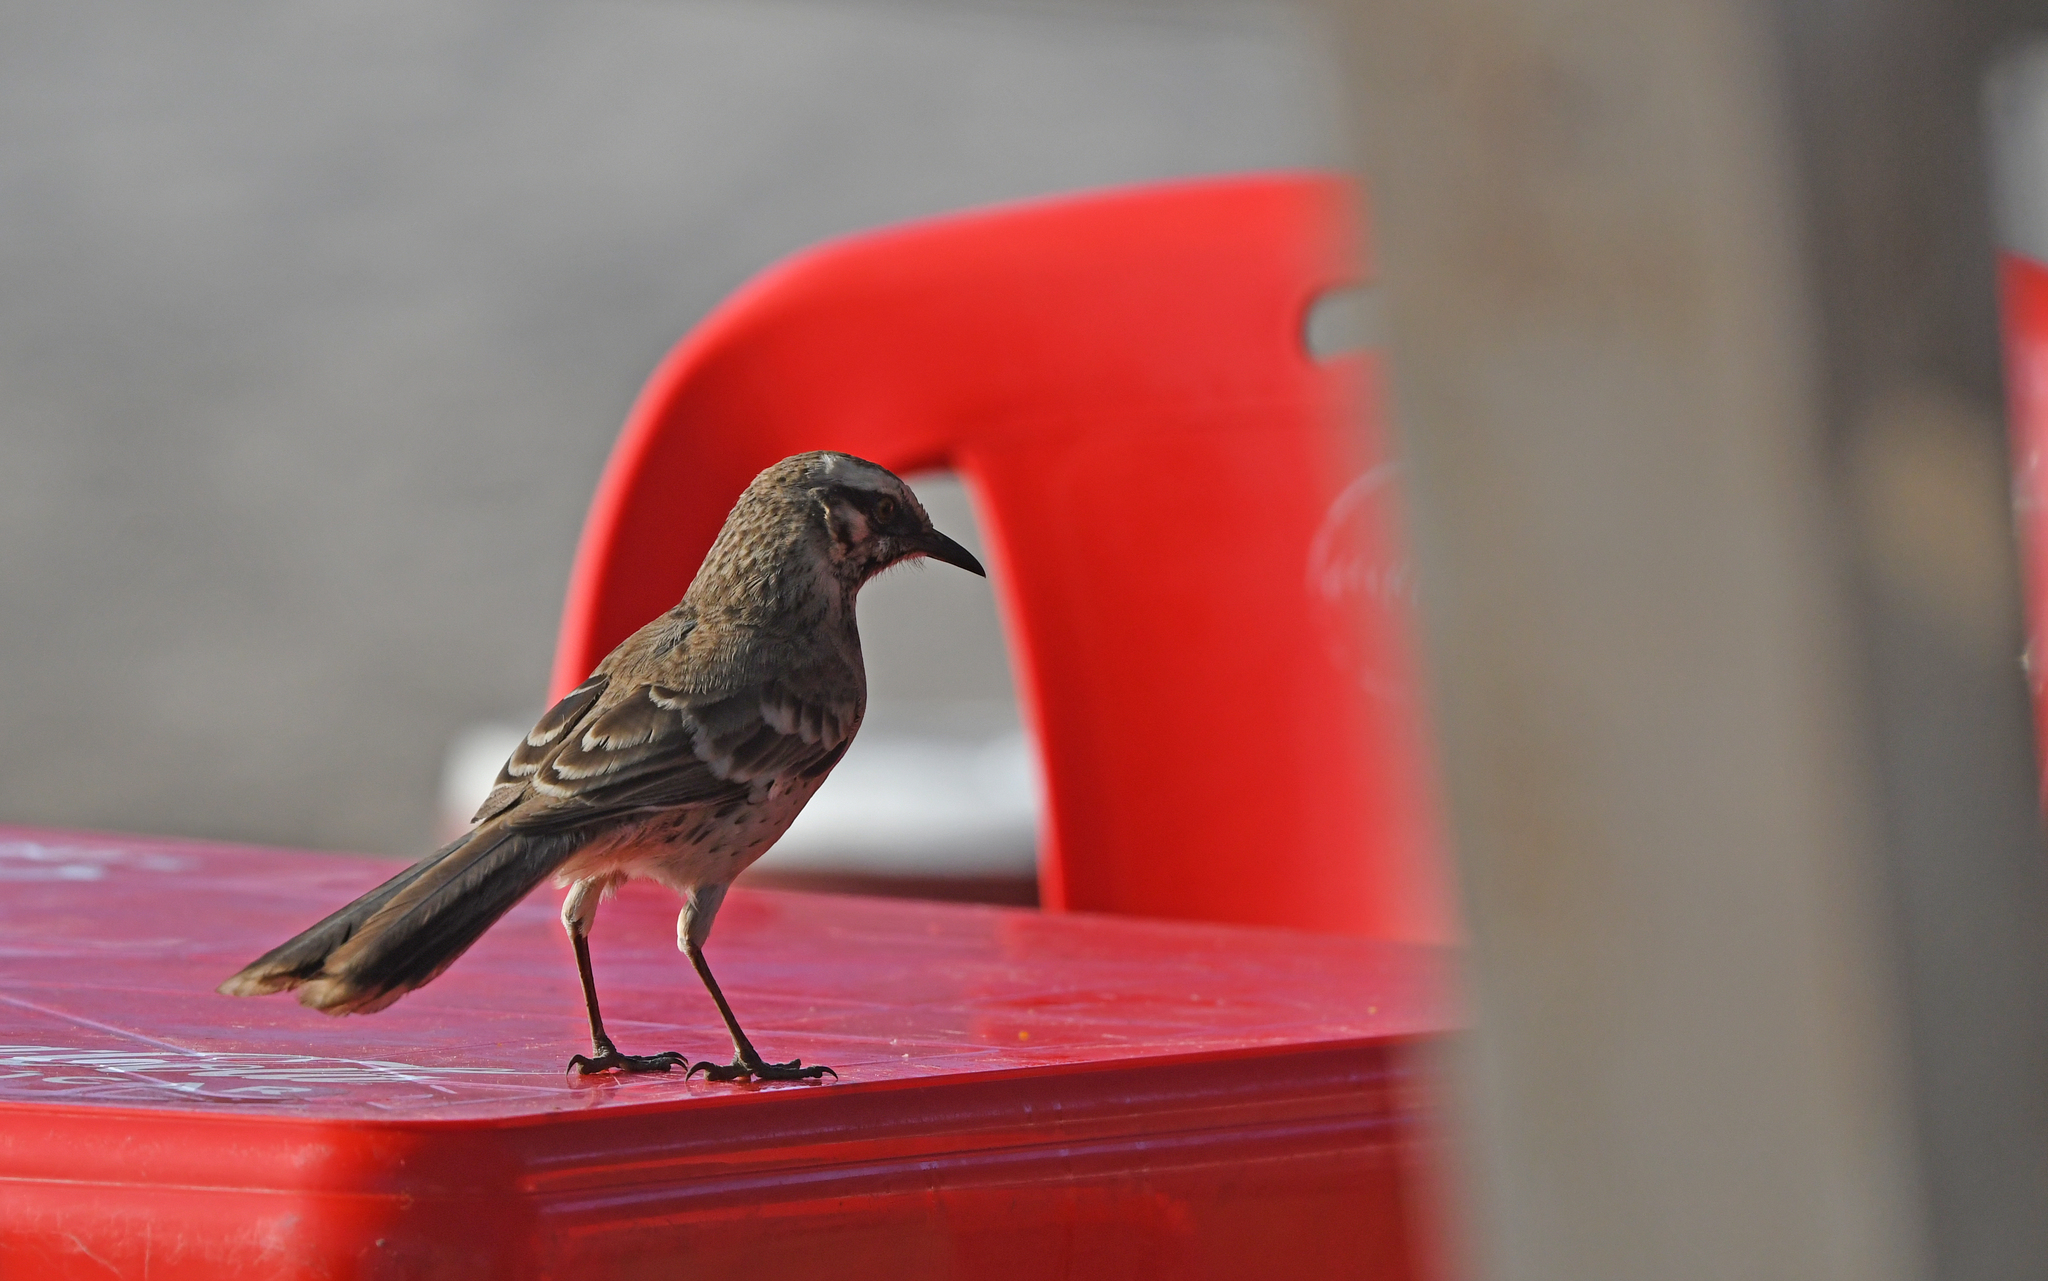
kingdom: Animalia
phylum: Chordata
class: Aves
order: Passeriformes
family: Mimidae
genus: Mimus
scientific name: Mimus longicaudatus
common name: Long-tailed mockingbird
